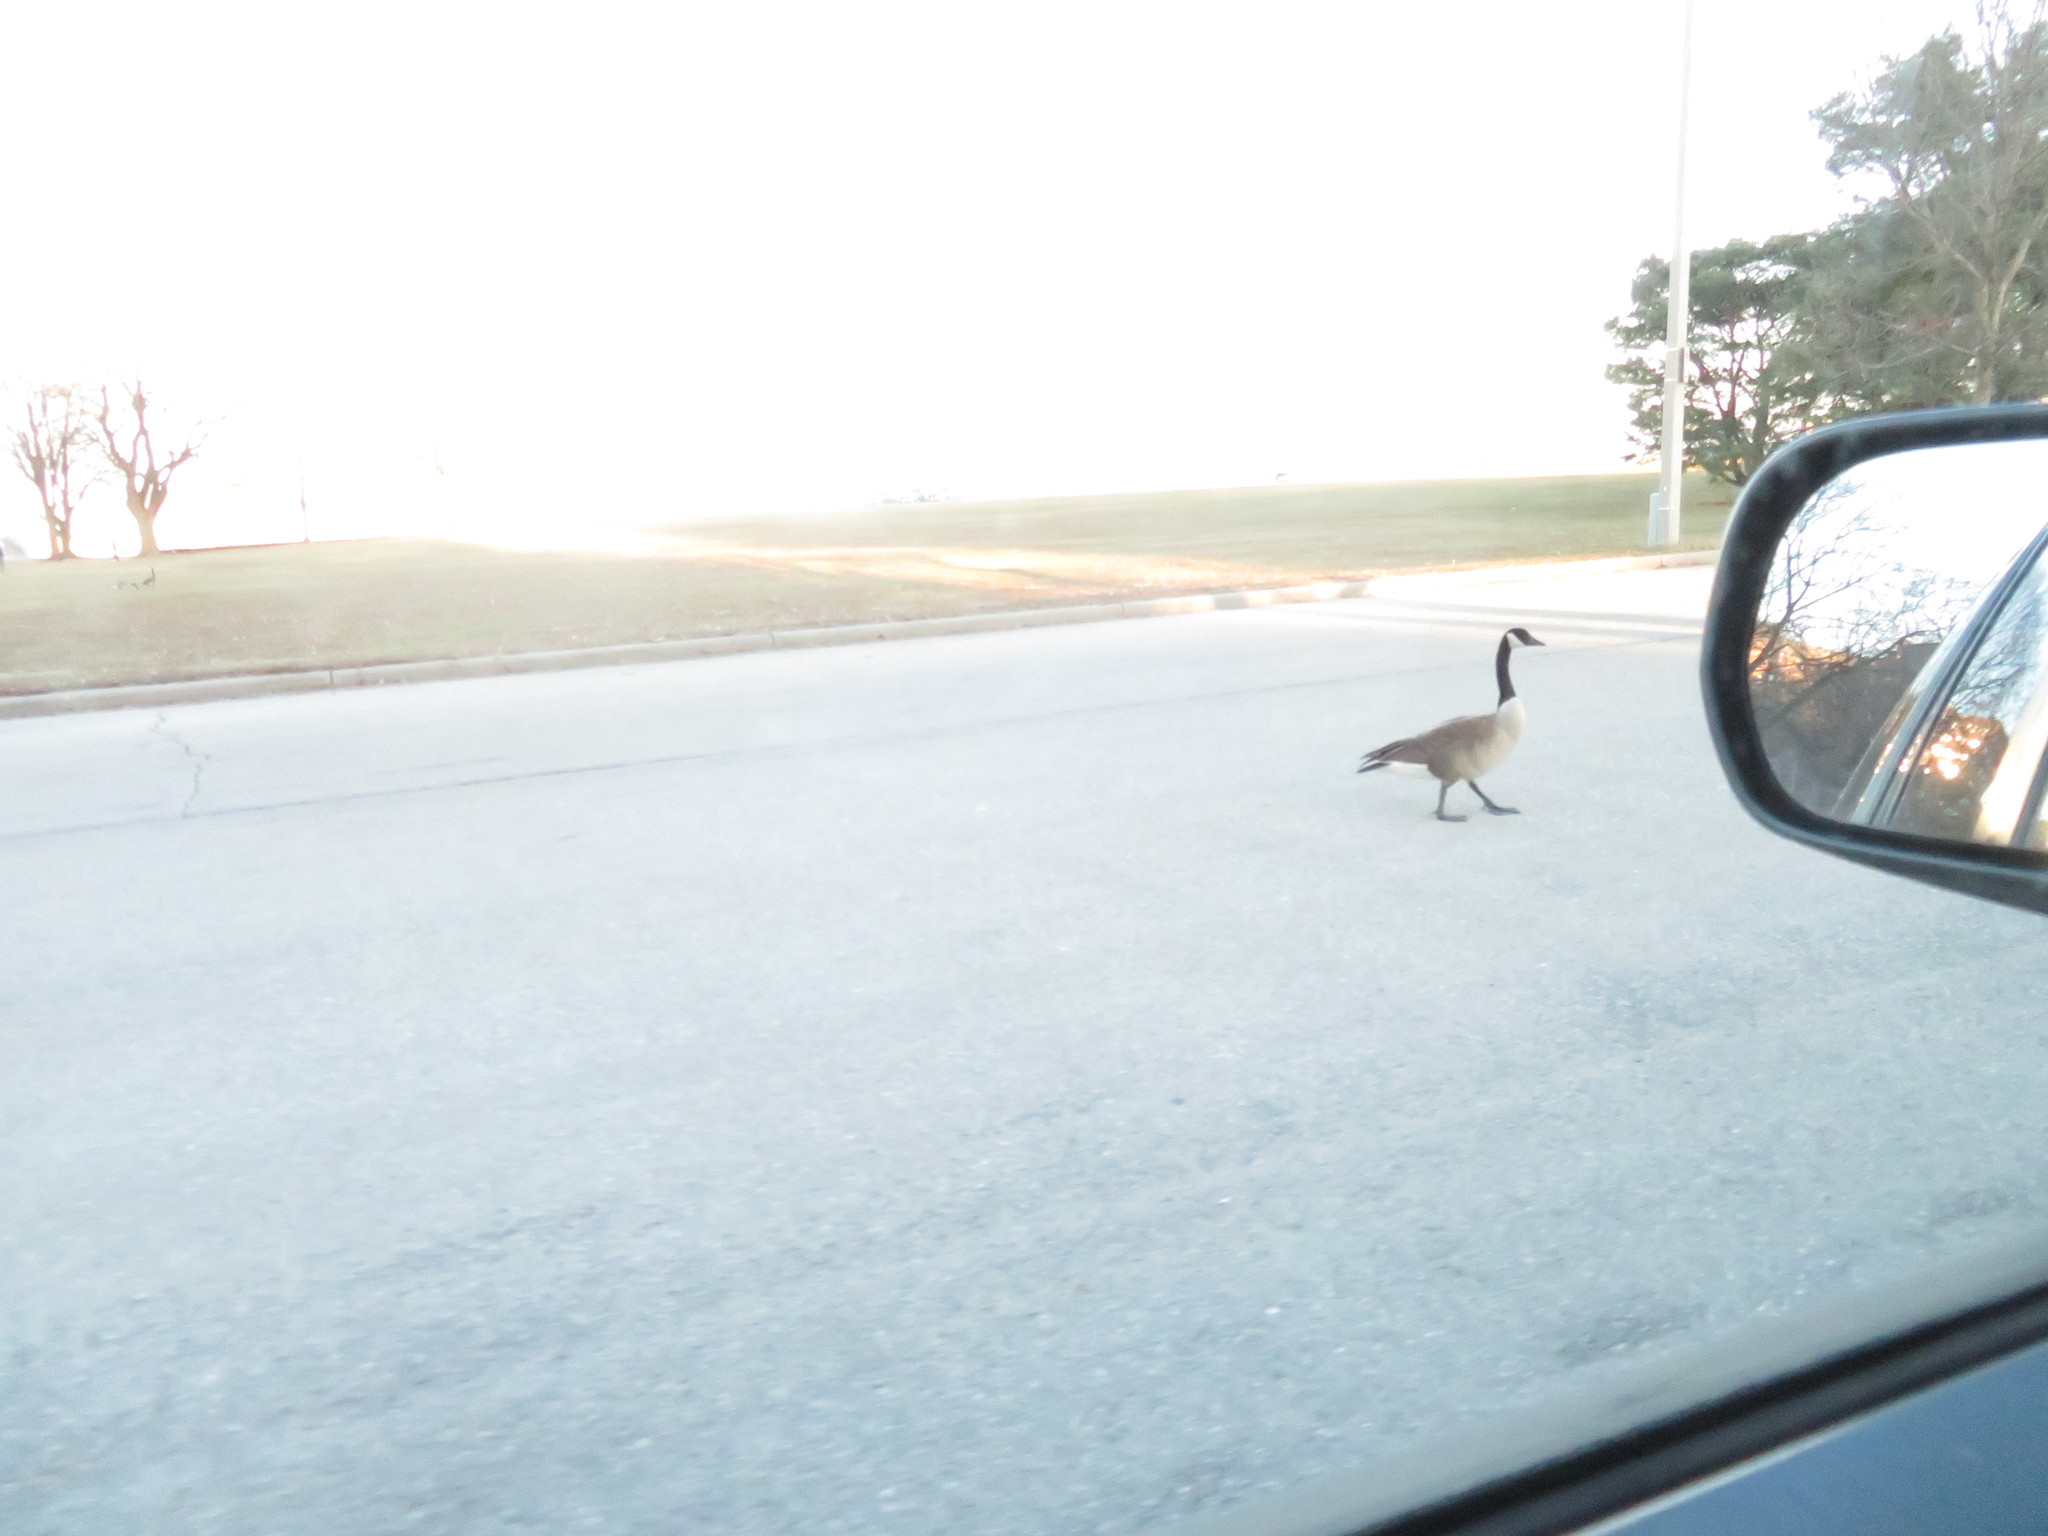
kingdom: Animalia
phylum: Chordata
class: Aves
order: Anseriformes
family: Anatidae
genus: Branta
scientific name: Branta canadensis
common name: Canada goose
